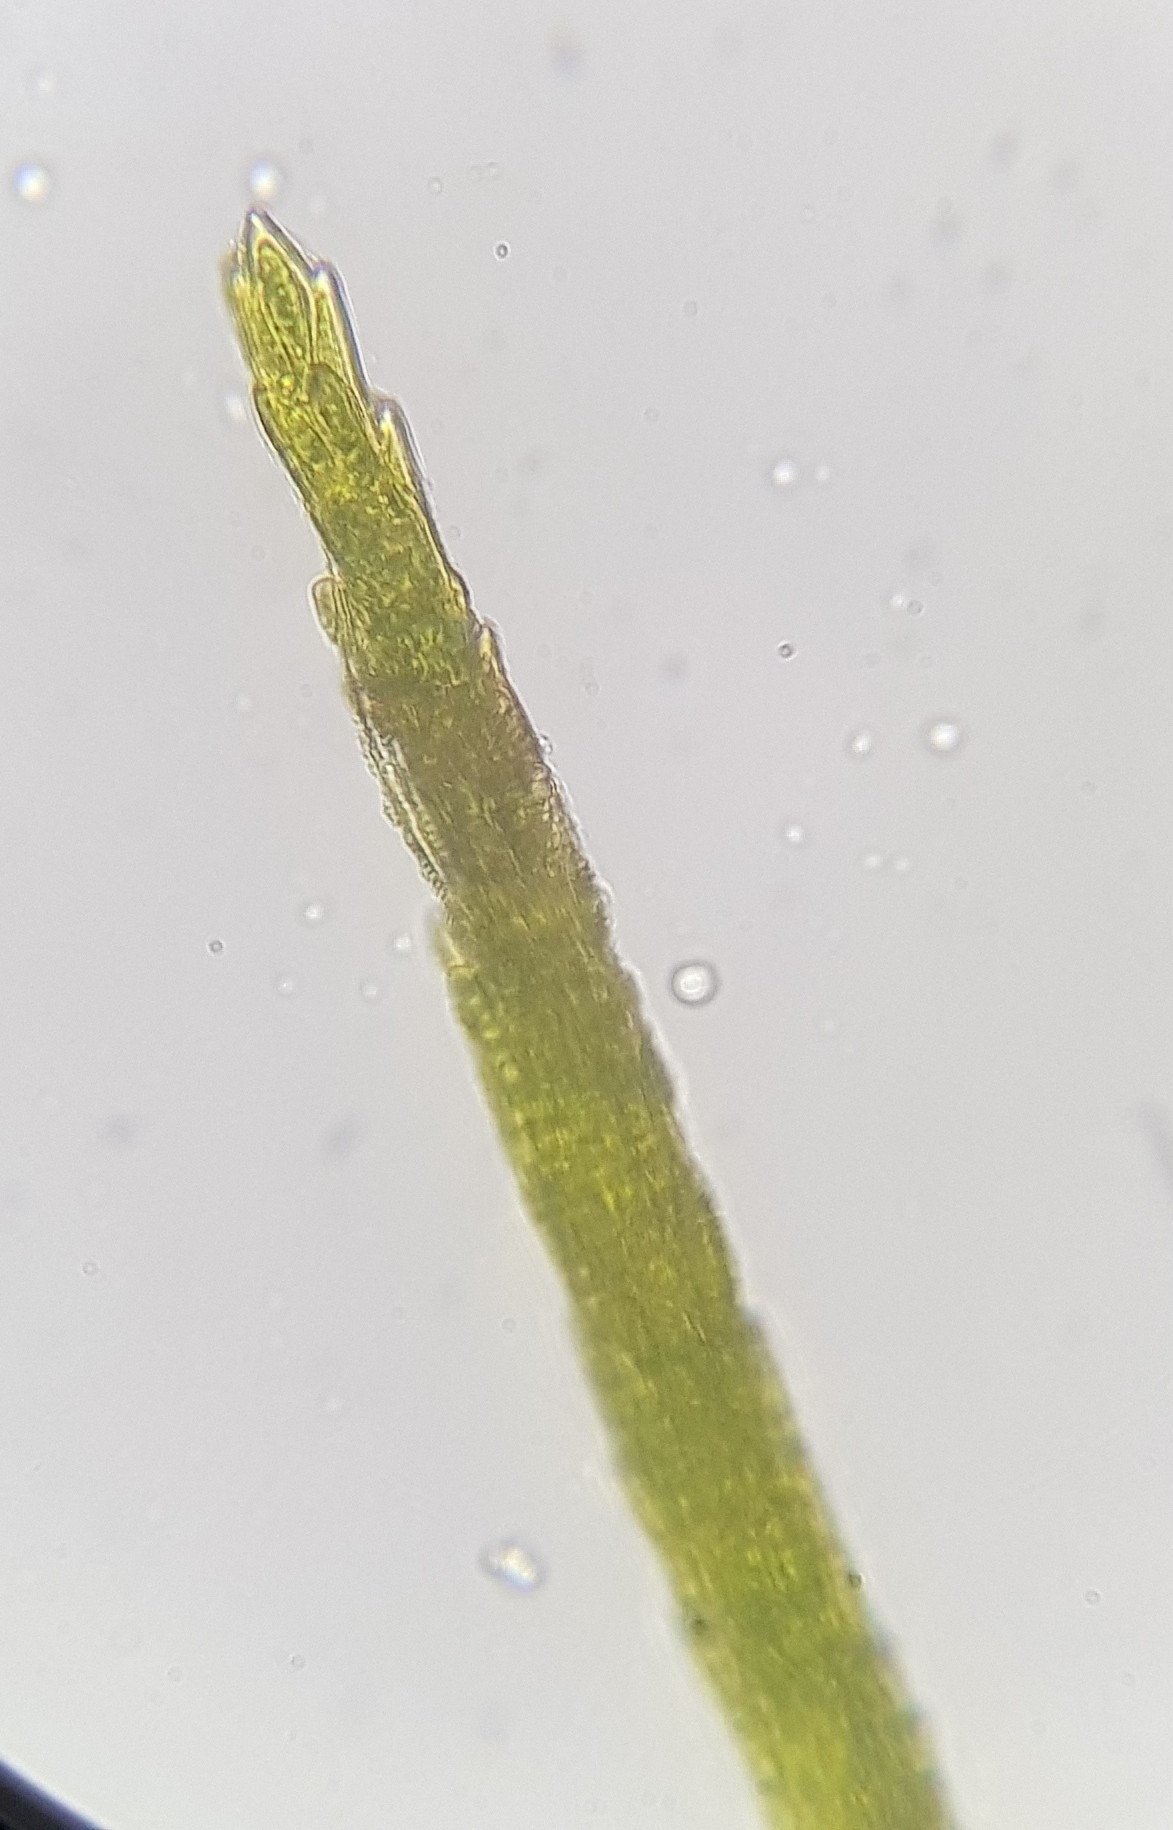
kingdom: Plantae
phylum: Bryophyta
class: Bryopsida
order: Dicranales
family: Dicranellaceae
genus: Dicranella
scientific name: Dicranella heteromalla
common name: Silky forklet moss
